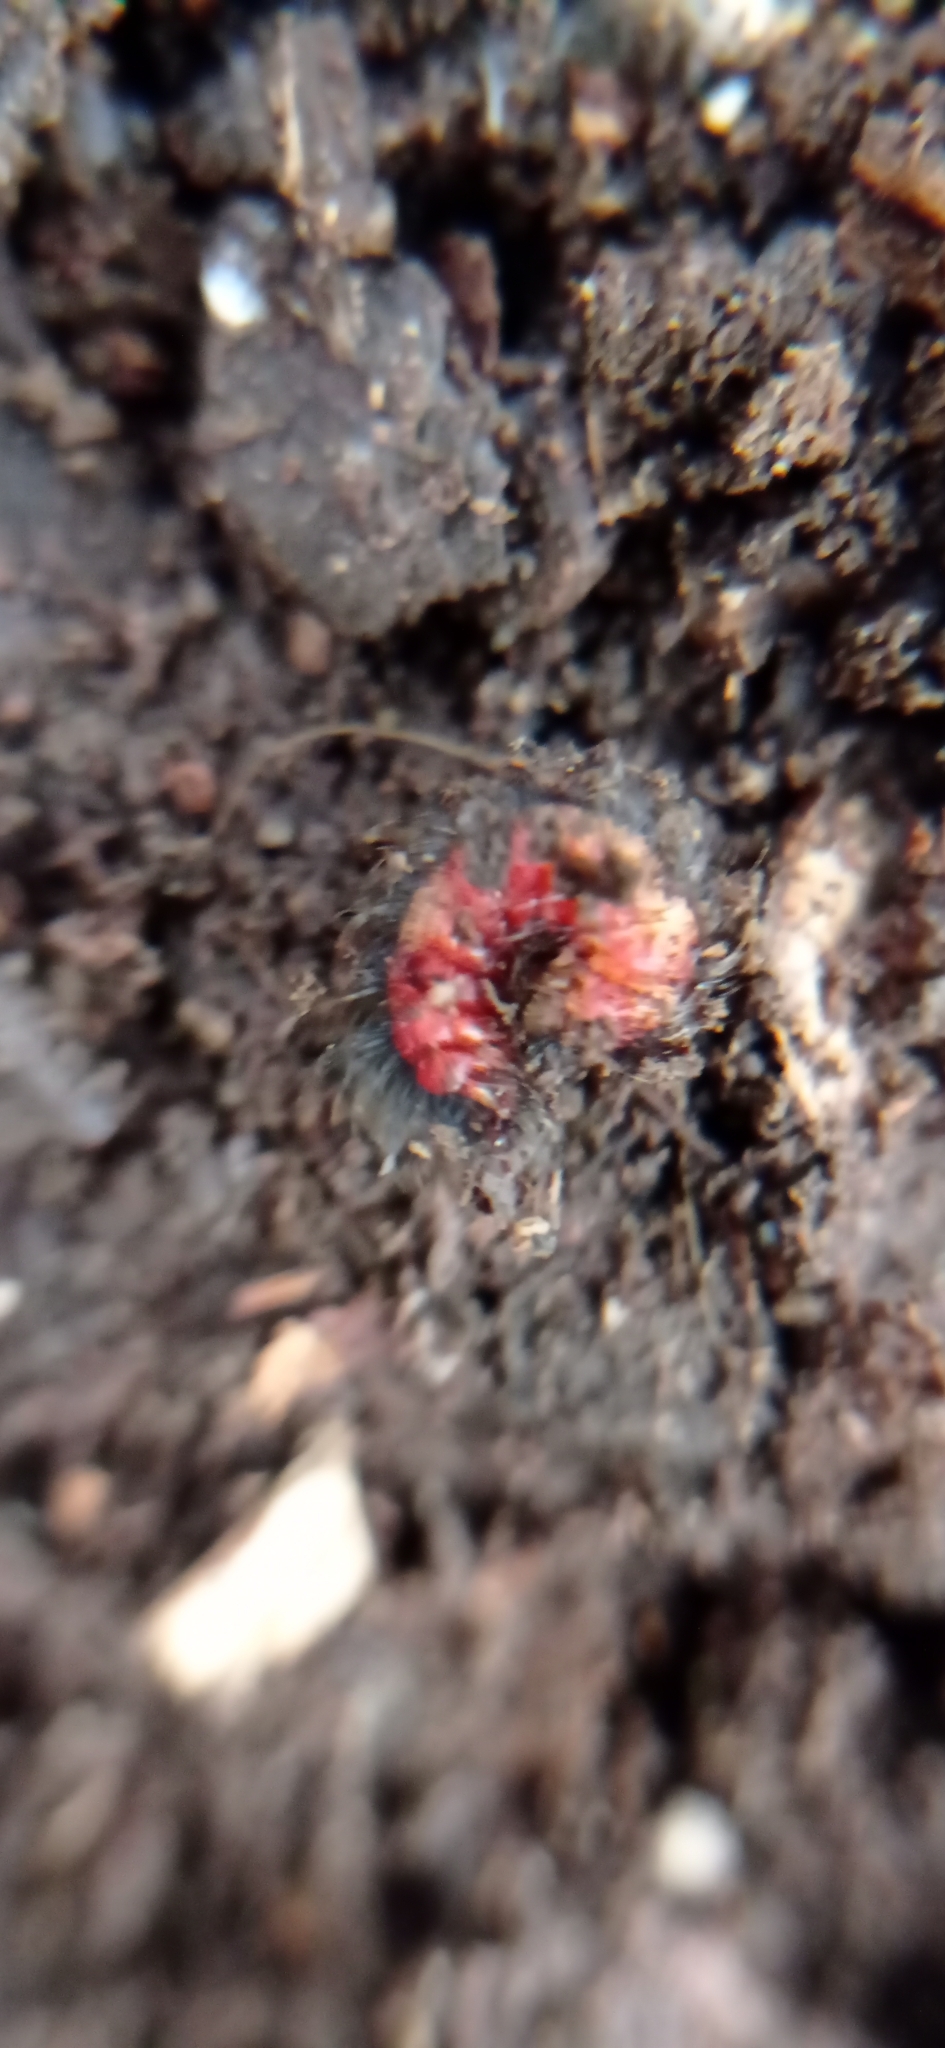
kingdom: Animalia
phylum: Arthropoda
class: Insecta
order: Coleoptera
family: Melyridae
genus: Astylus
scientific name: Astylus
